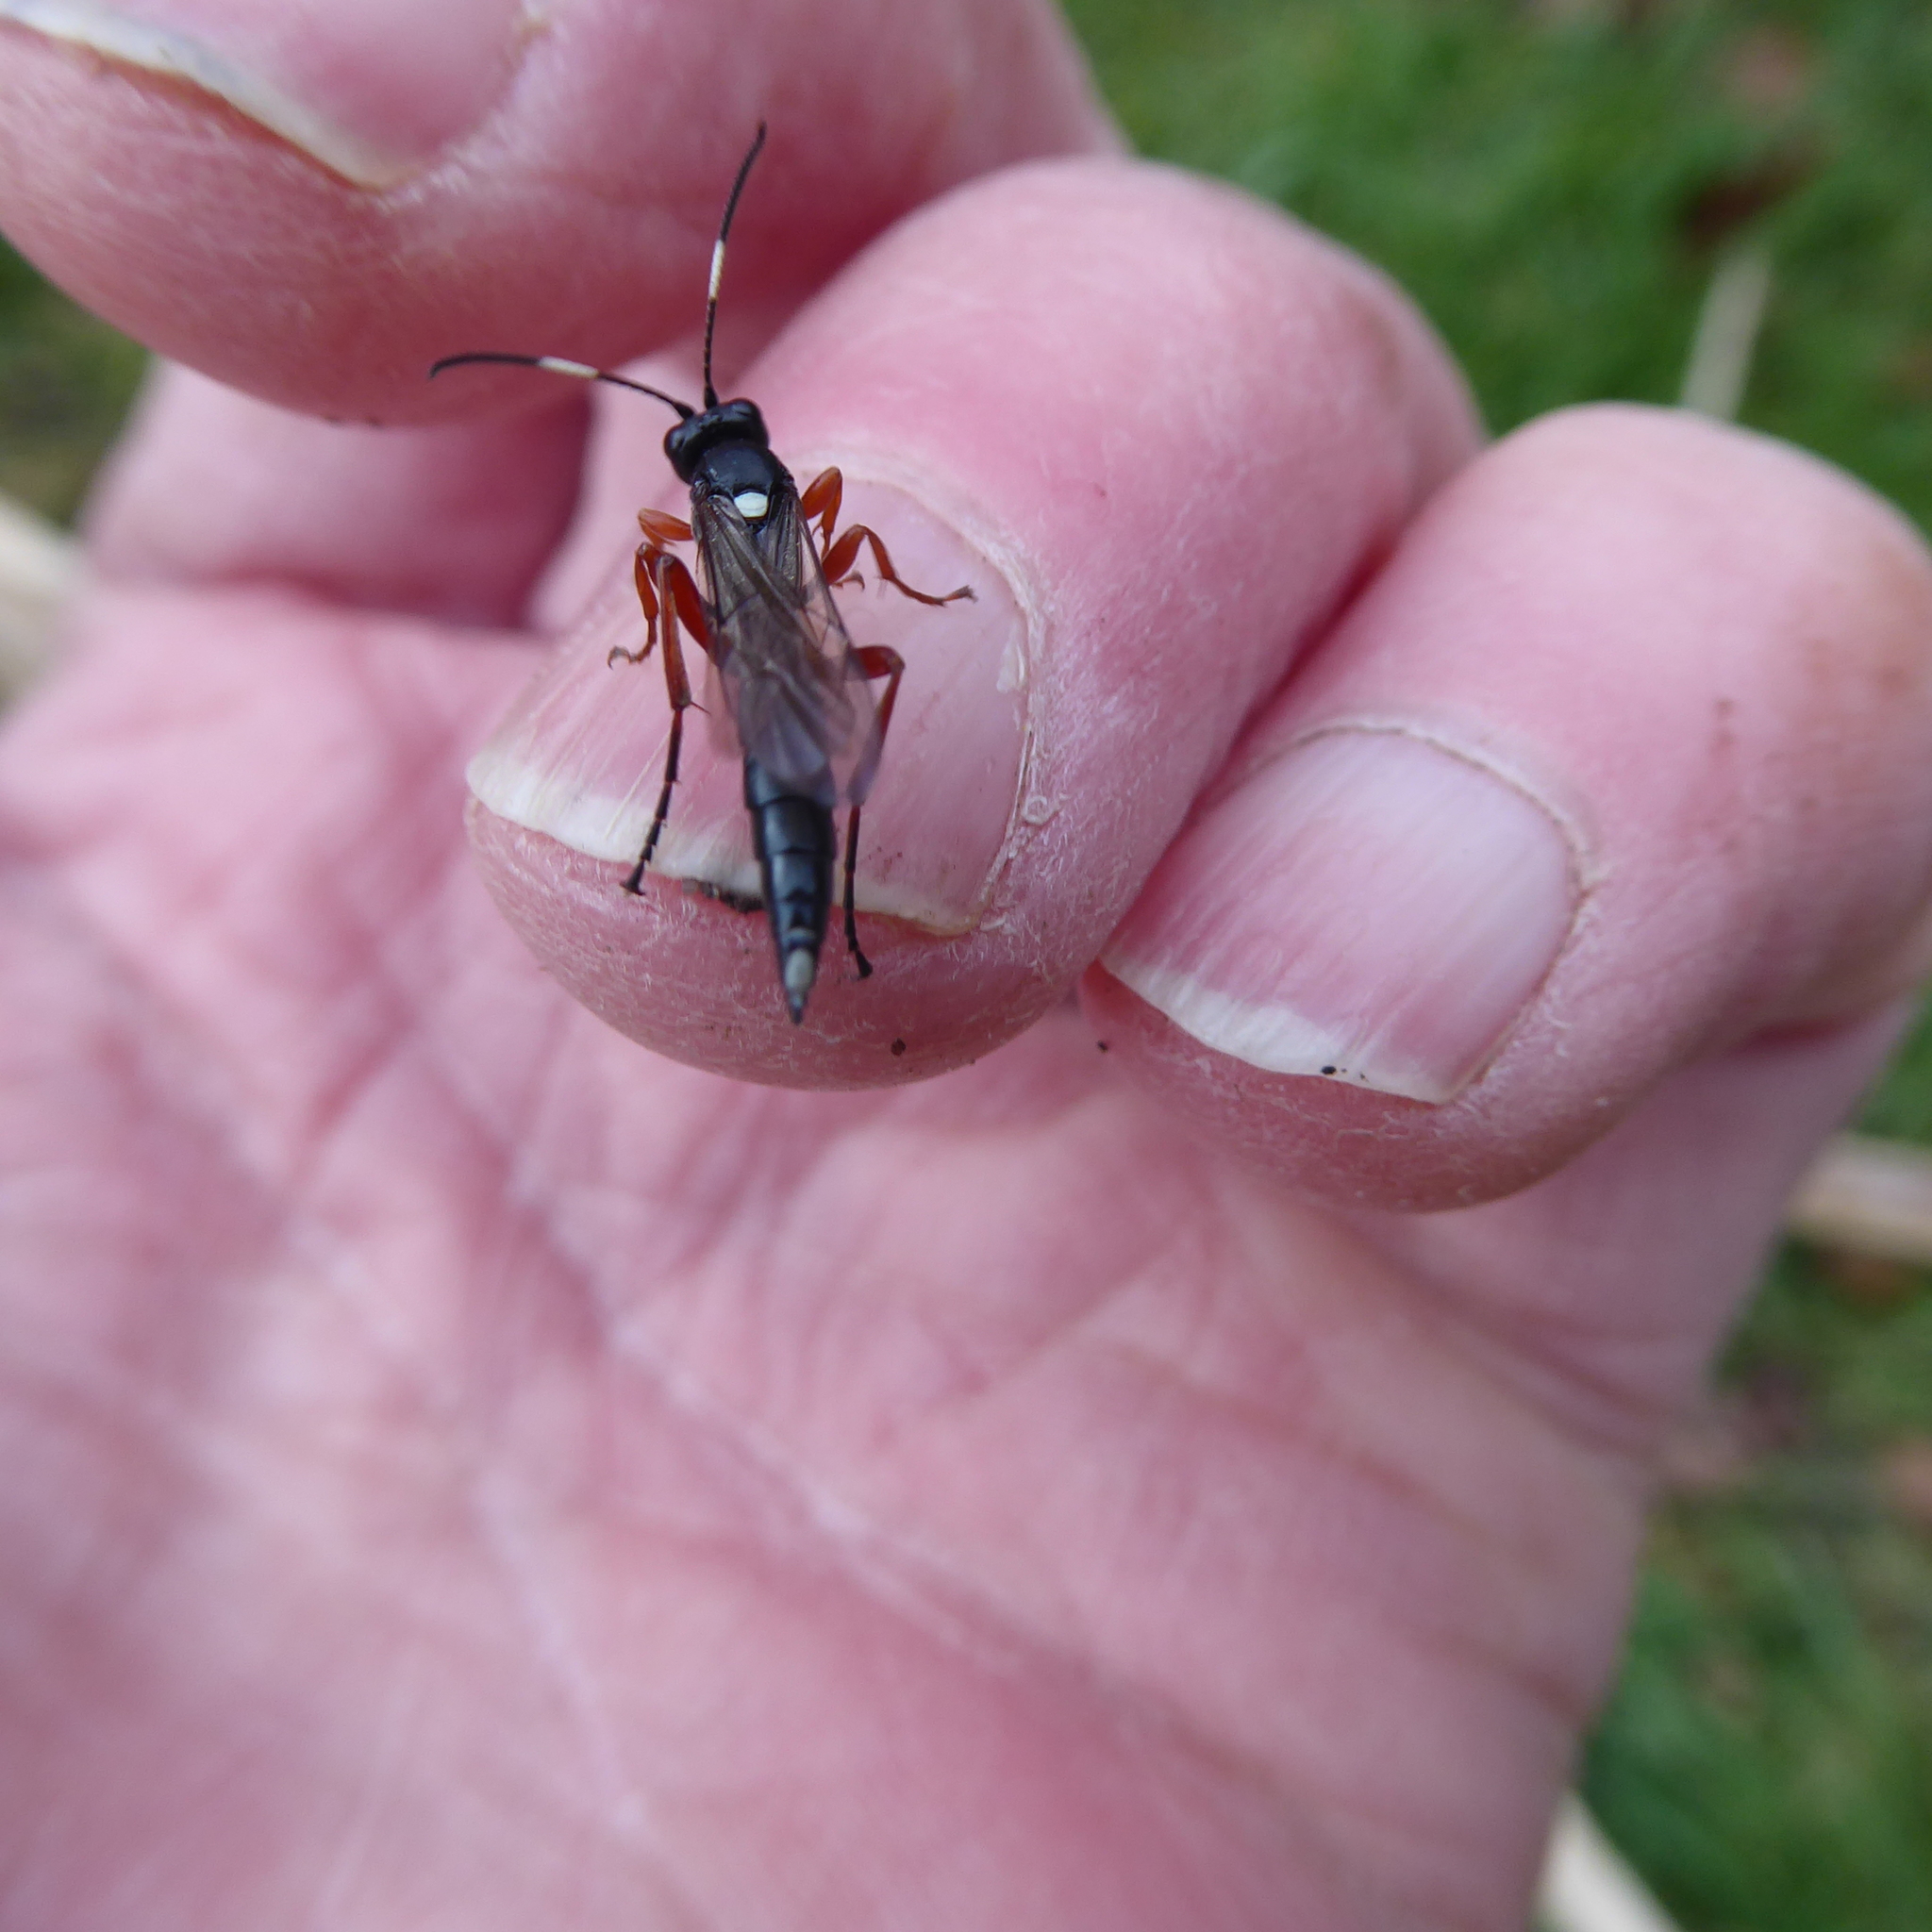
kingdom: Animalia
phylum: Arthropoda
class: Insecta
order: Hymenoptera
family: Ichneumonidae
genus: Chasmias
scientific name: Chasmias paludator
